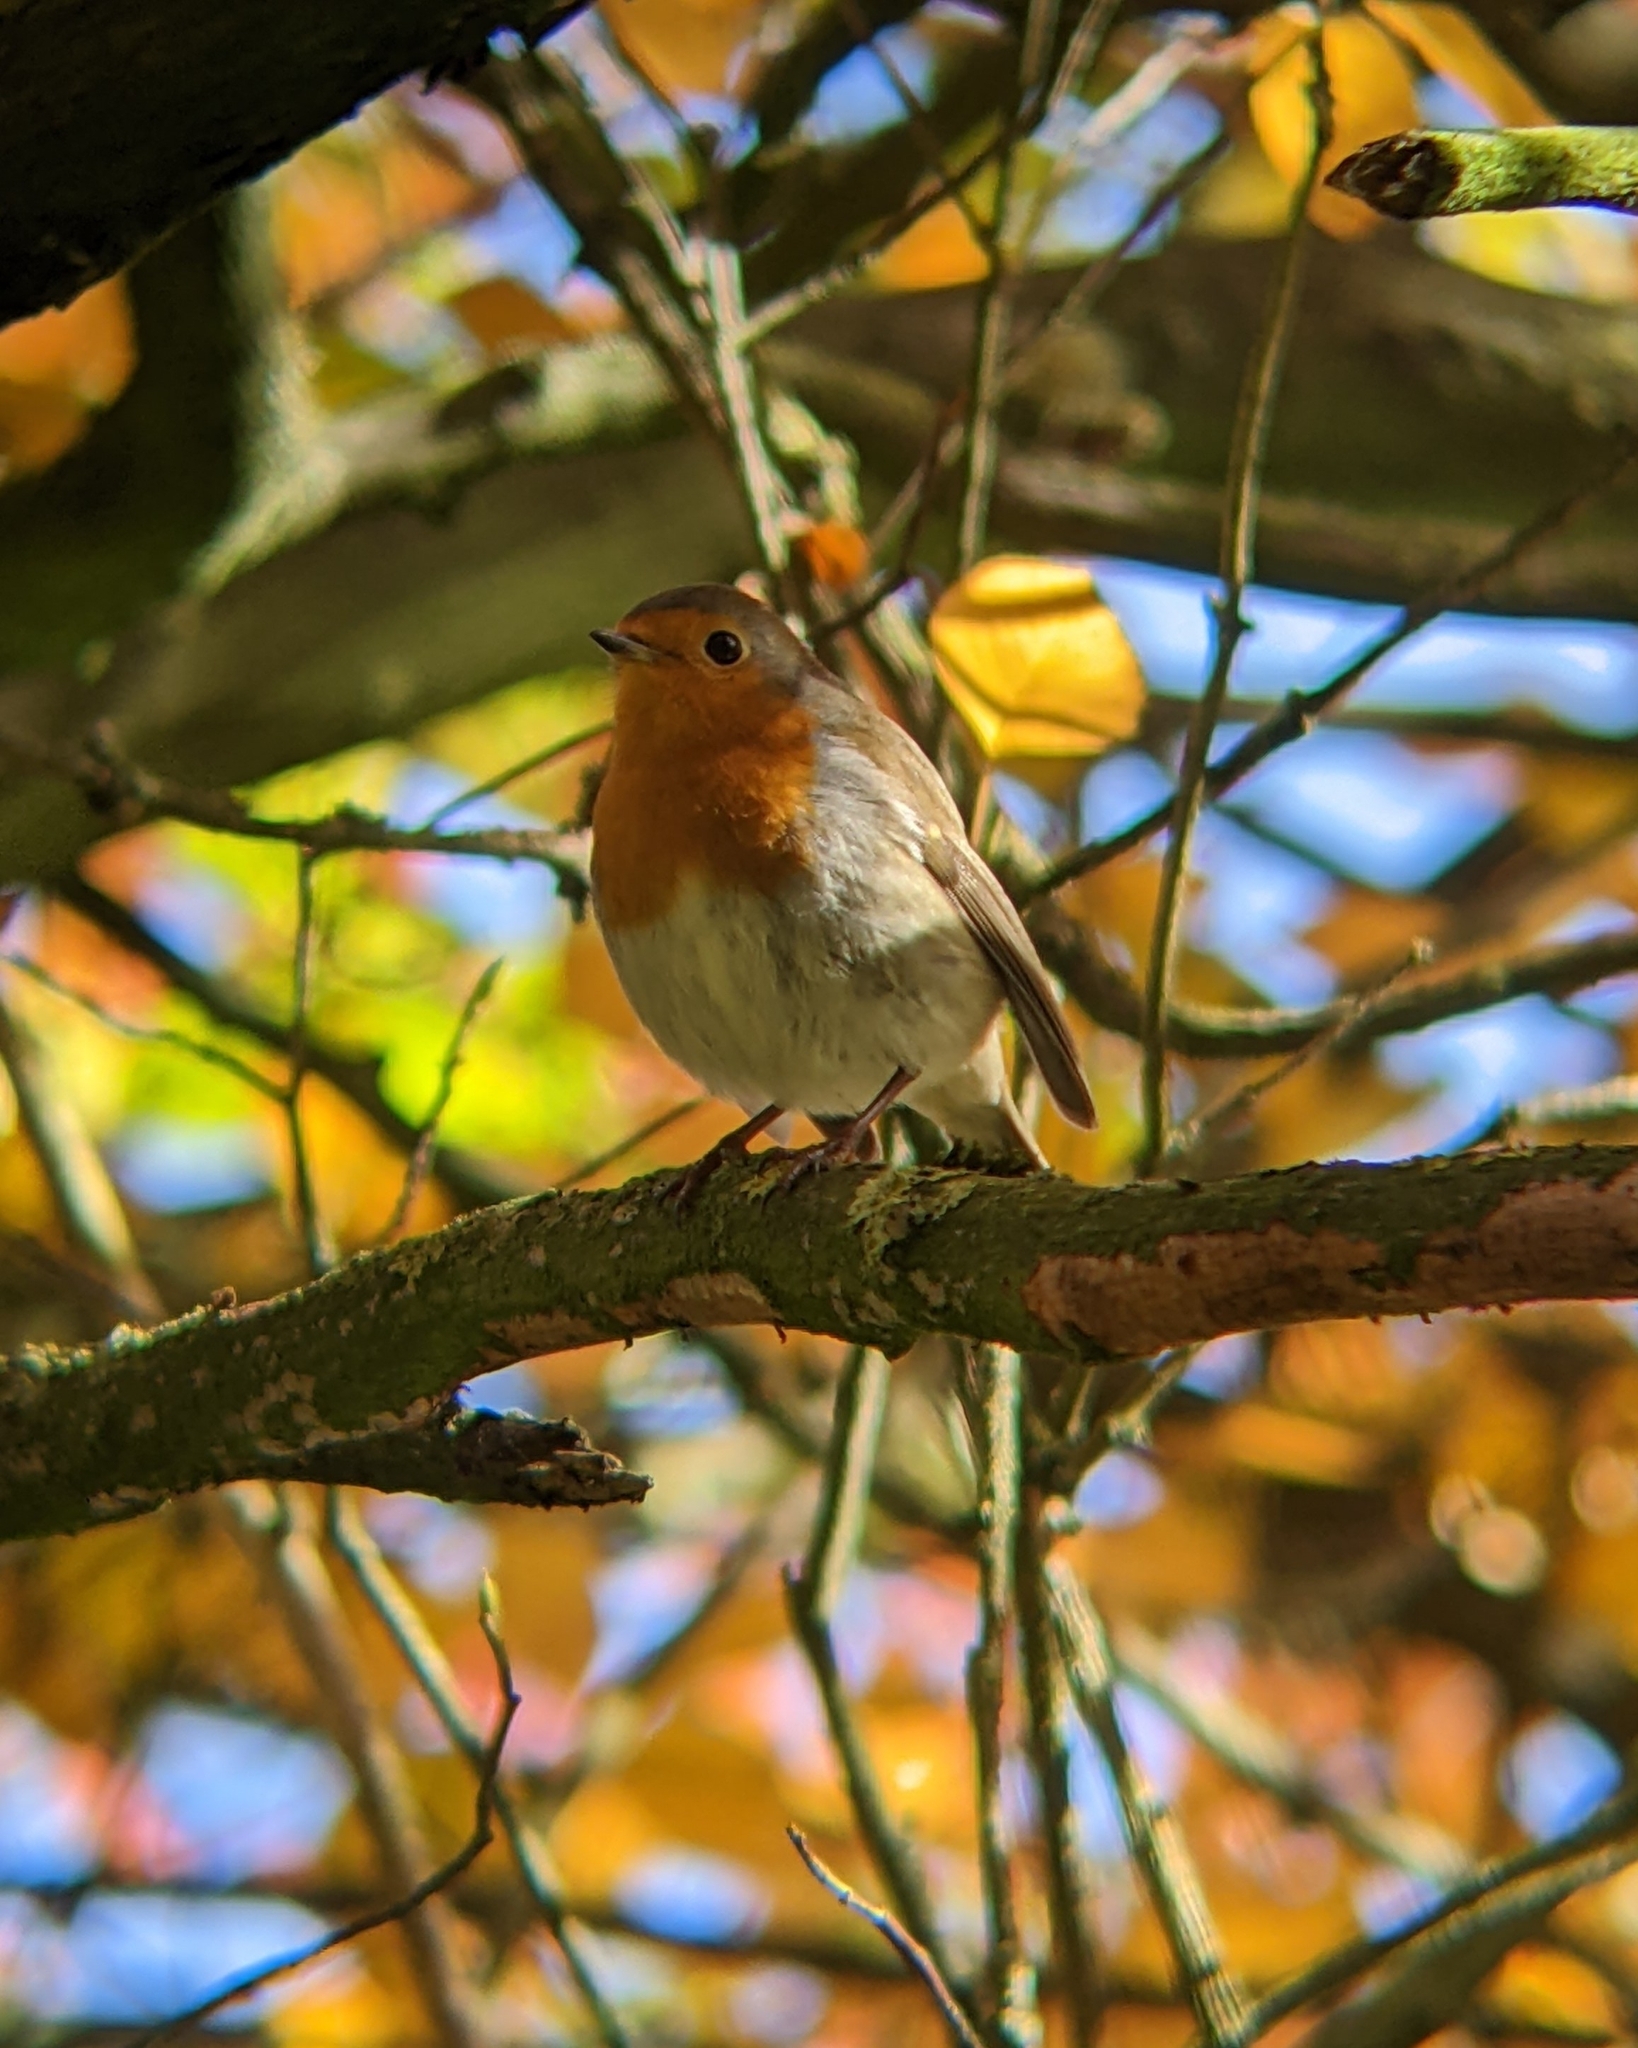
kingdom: Animalia
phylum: Chordata
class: Aves
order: Passeriformes
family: Muscicapidae
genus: Erithacus
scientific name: Erithacus rubecula
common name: European robin
